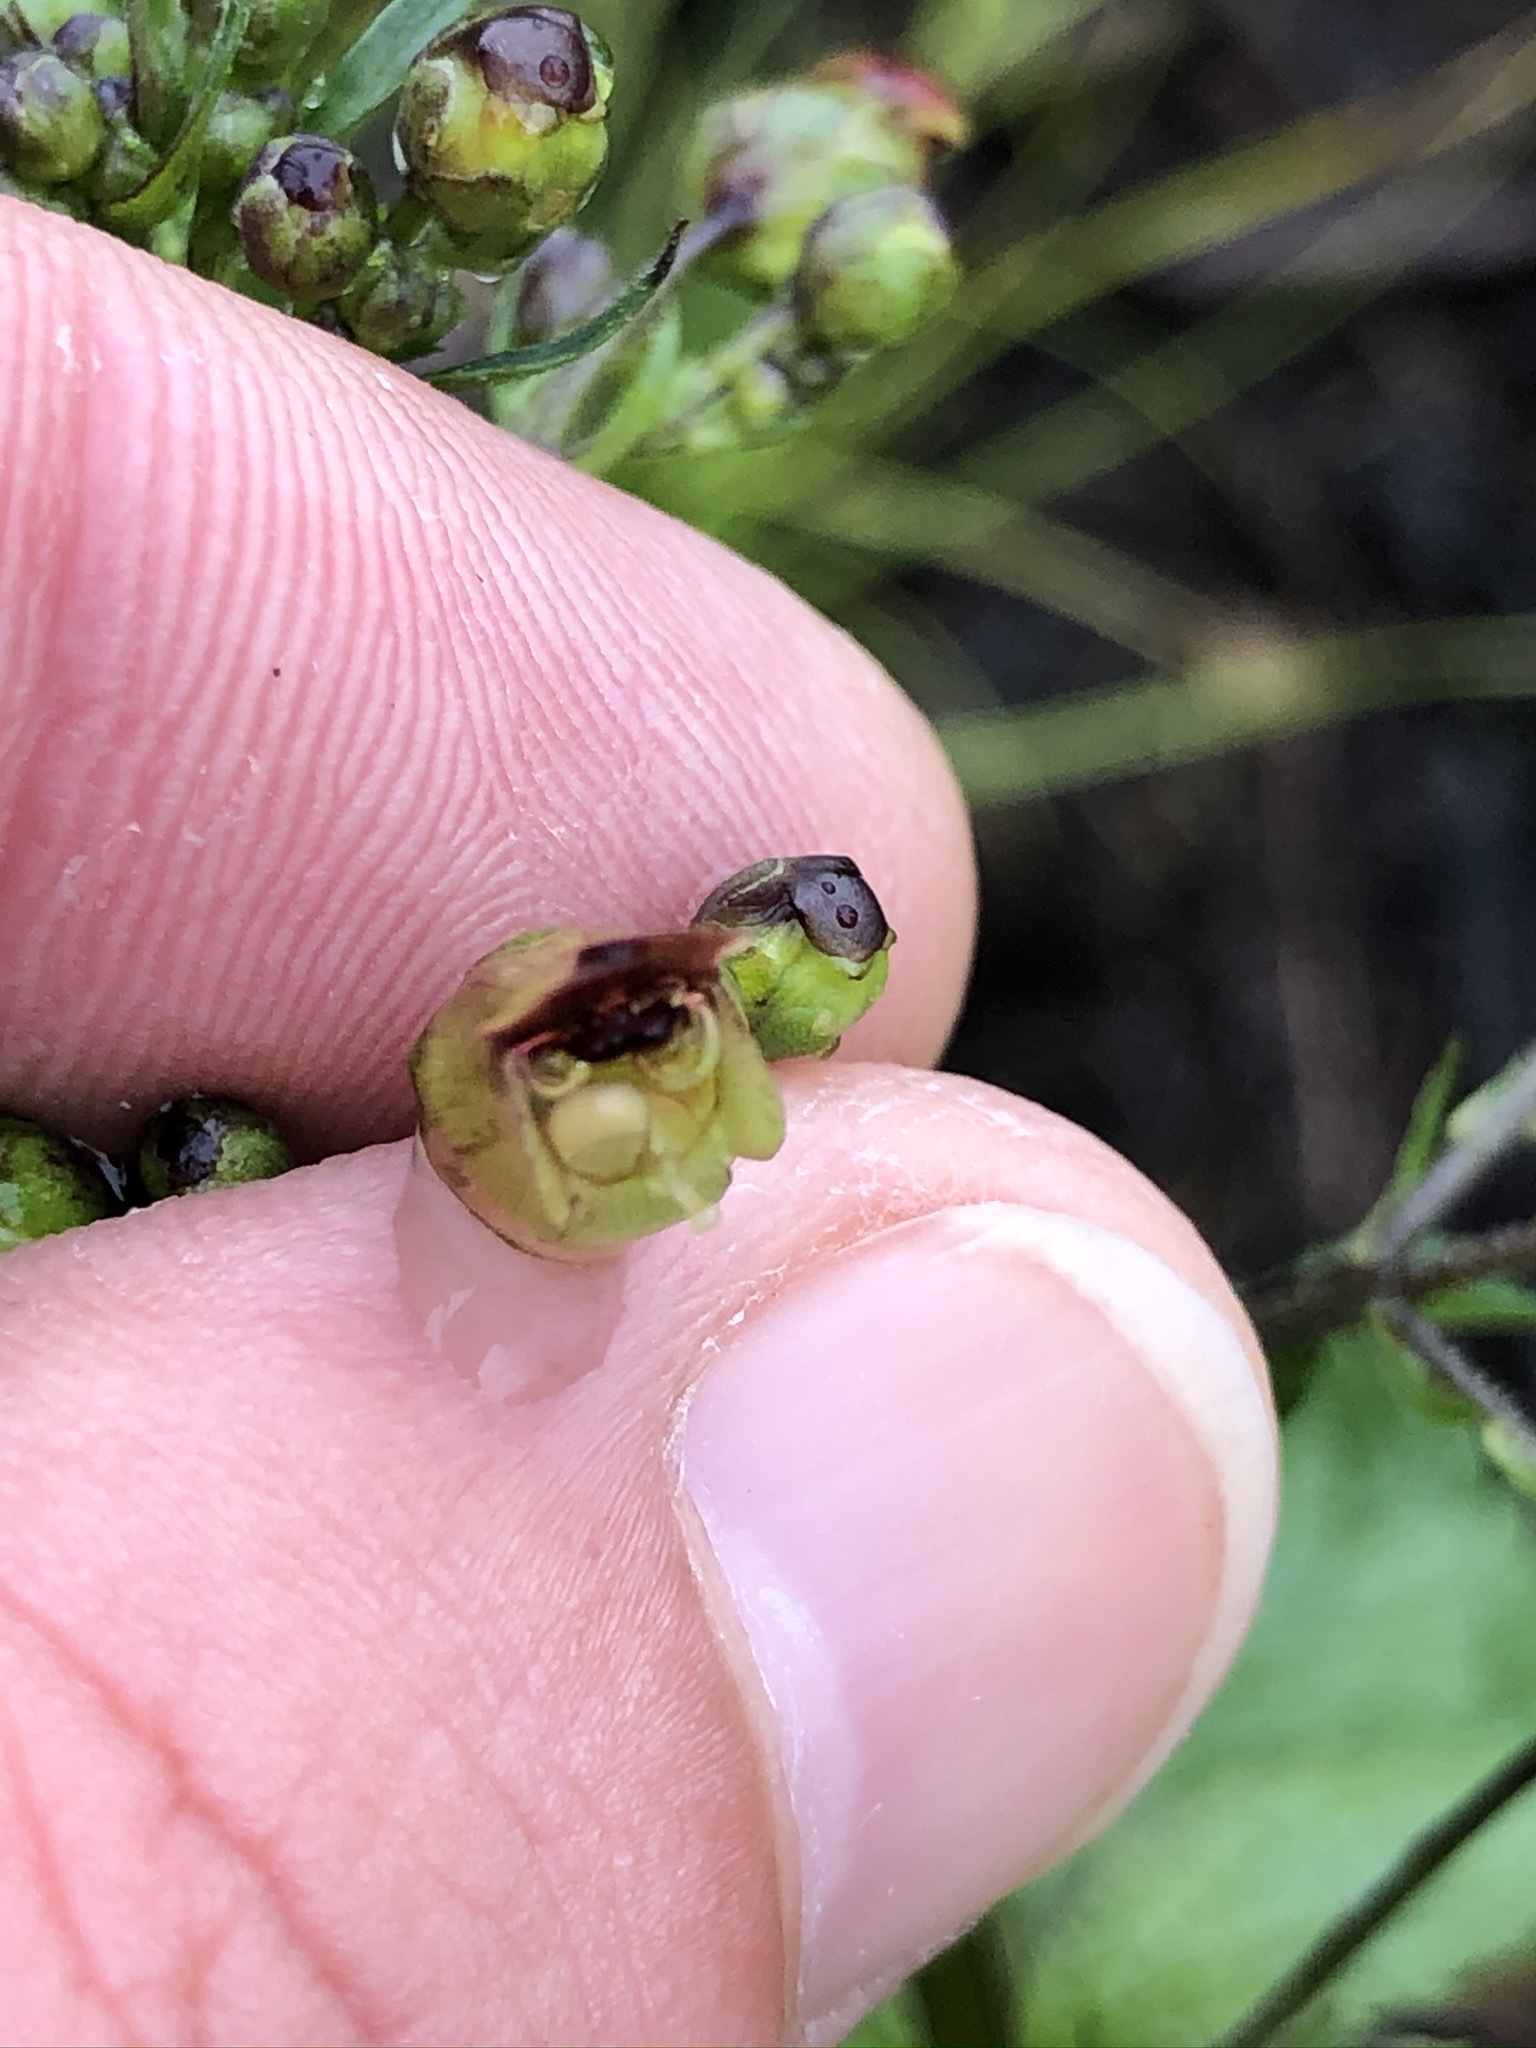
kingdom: Plantae
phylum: Tracheophyta
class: Magnoliopsida
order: Lamiales
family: Scrophulariaceae
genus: Scrophularia
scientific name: Scrophularia nodosa
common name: Common figwort
